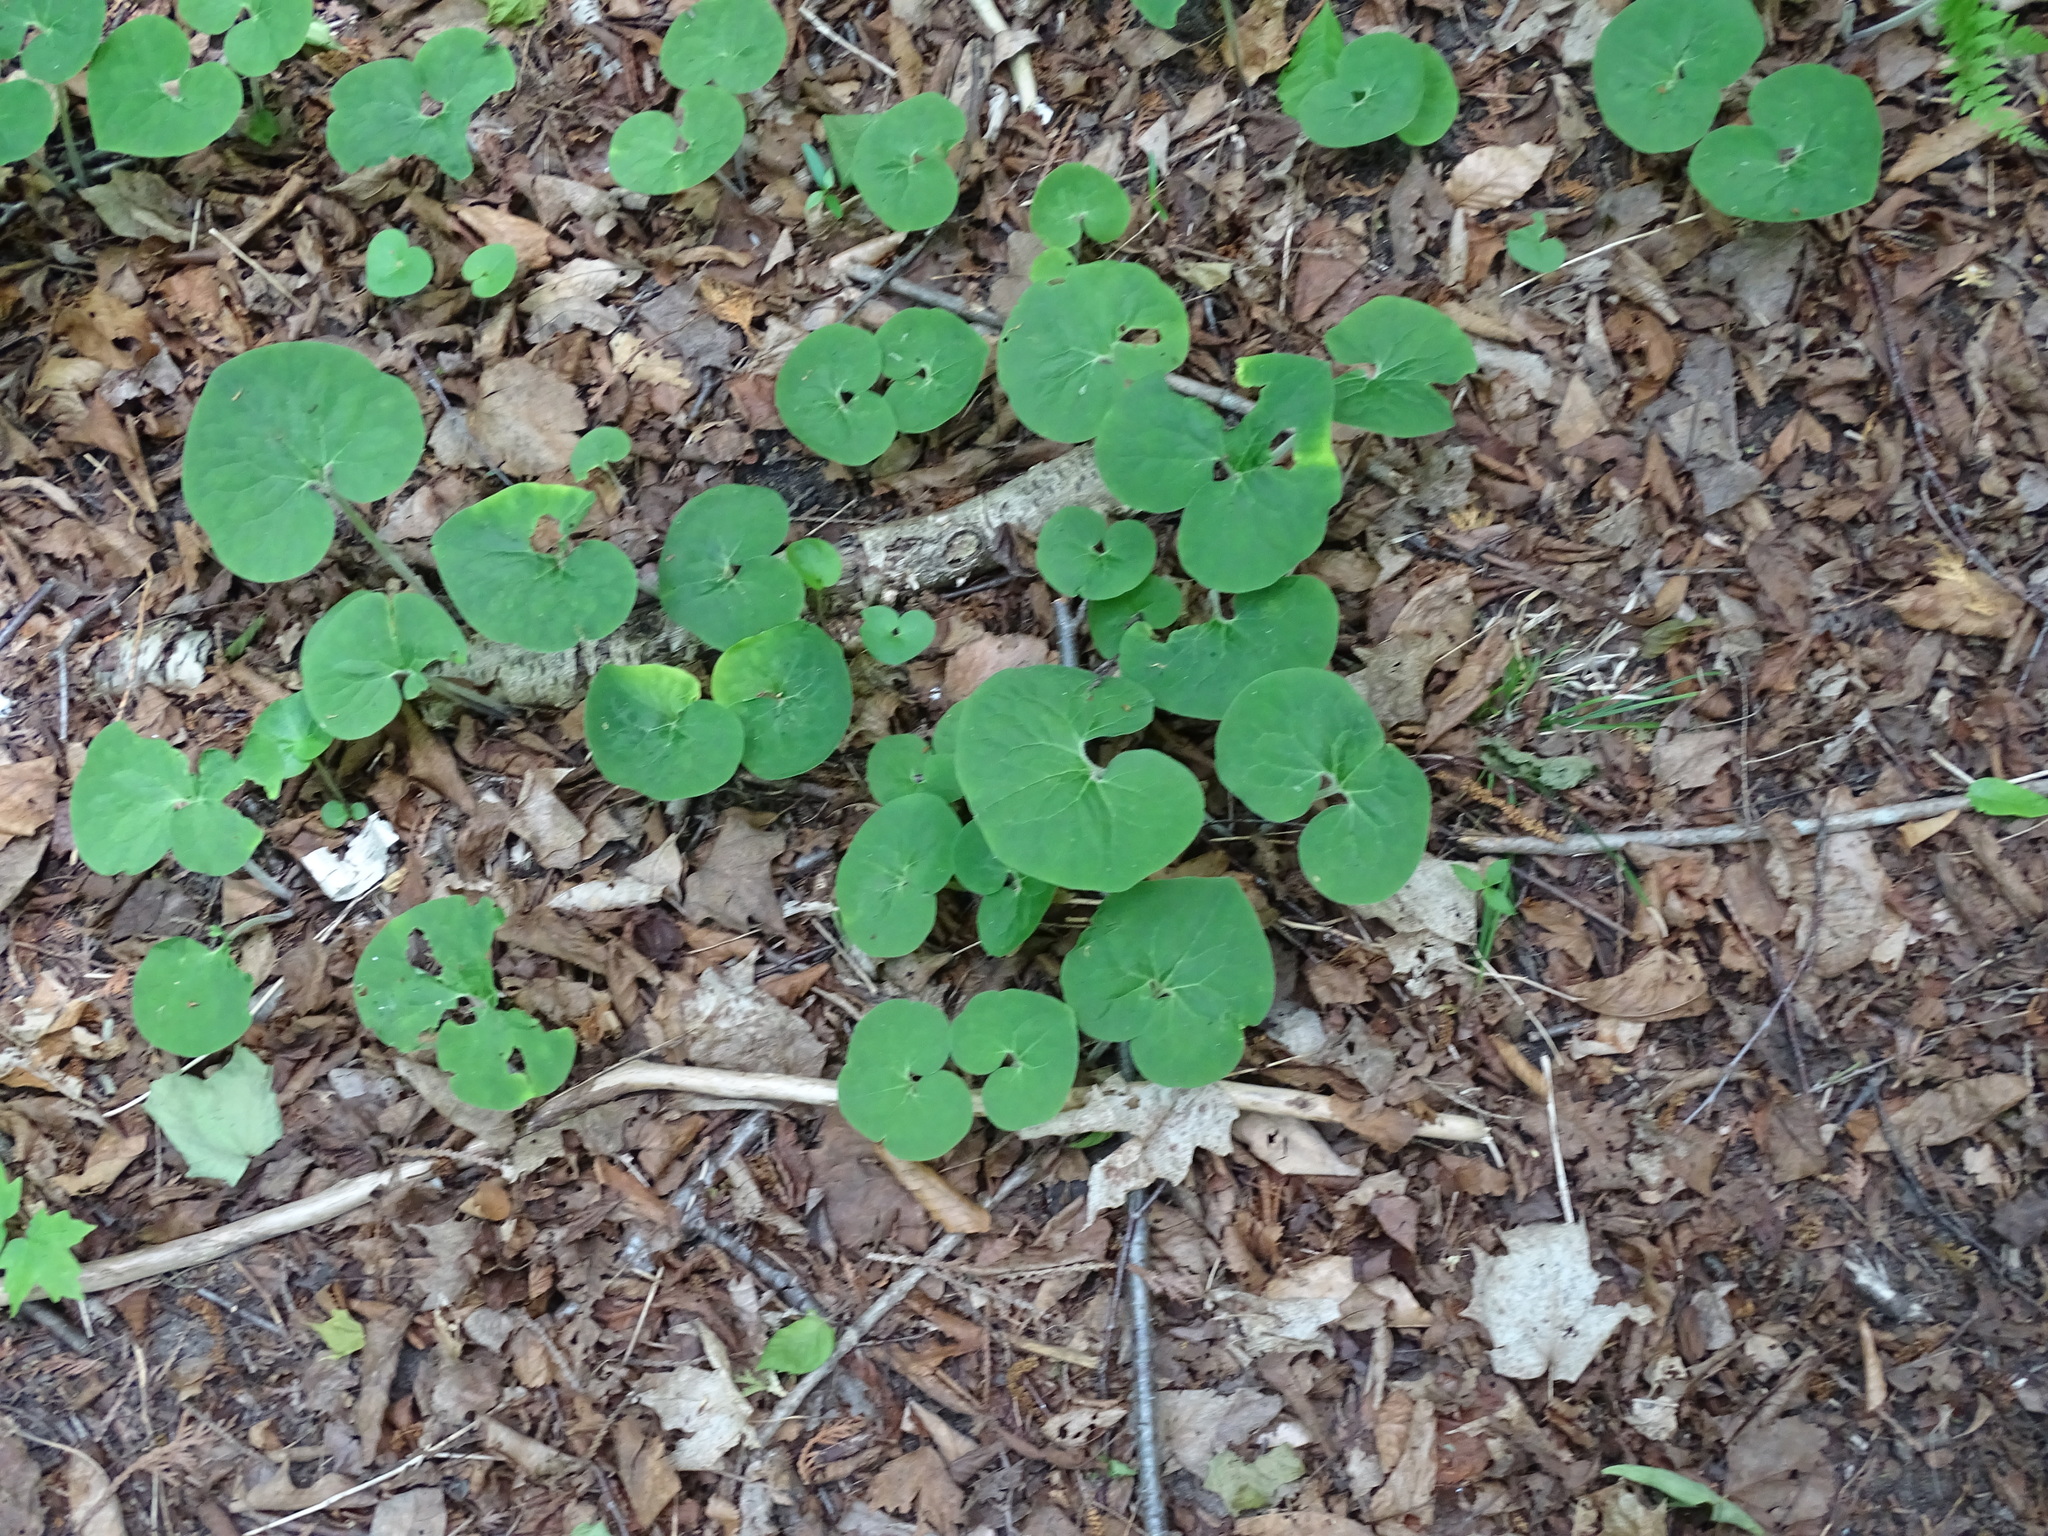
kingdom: Plantae
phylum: Tracheophyta
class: Magnoliopsida
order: Piperales
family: Aristolochiaceae
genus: Asarum
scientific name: Asarum canadense
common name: Wild ginger
